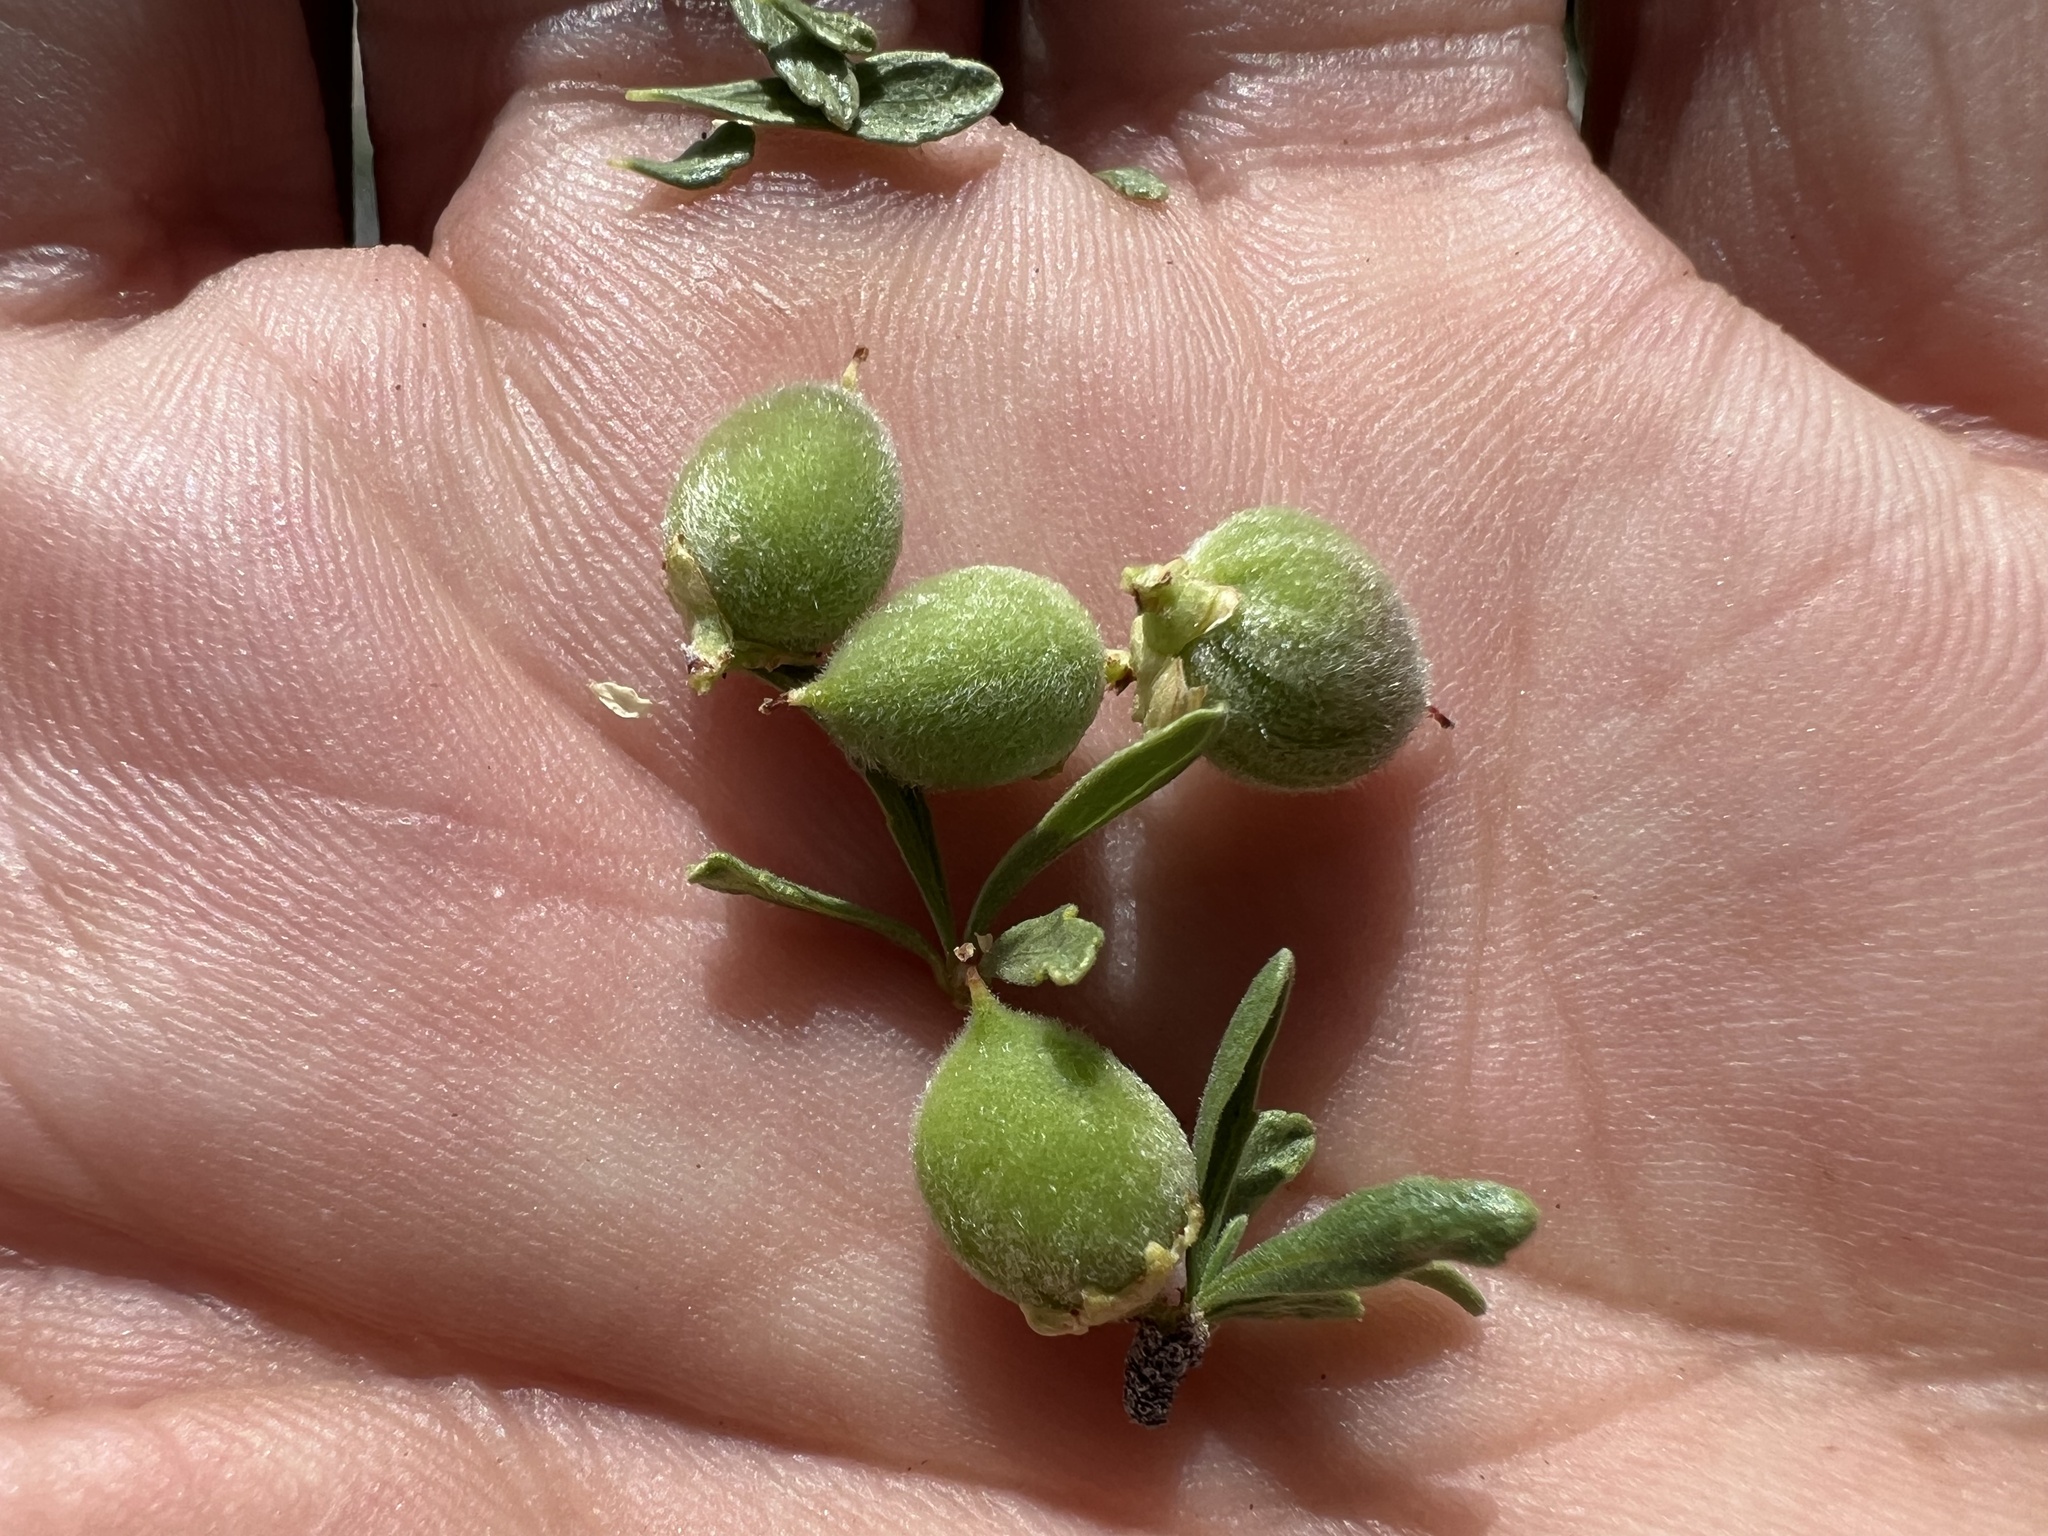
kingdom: Plantae
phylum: Tracheophyta
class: Magnoliopsida
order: Rosales
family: Rosaceae
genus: Prunus
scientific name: Prunus fasciculata
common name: Desert almond
